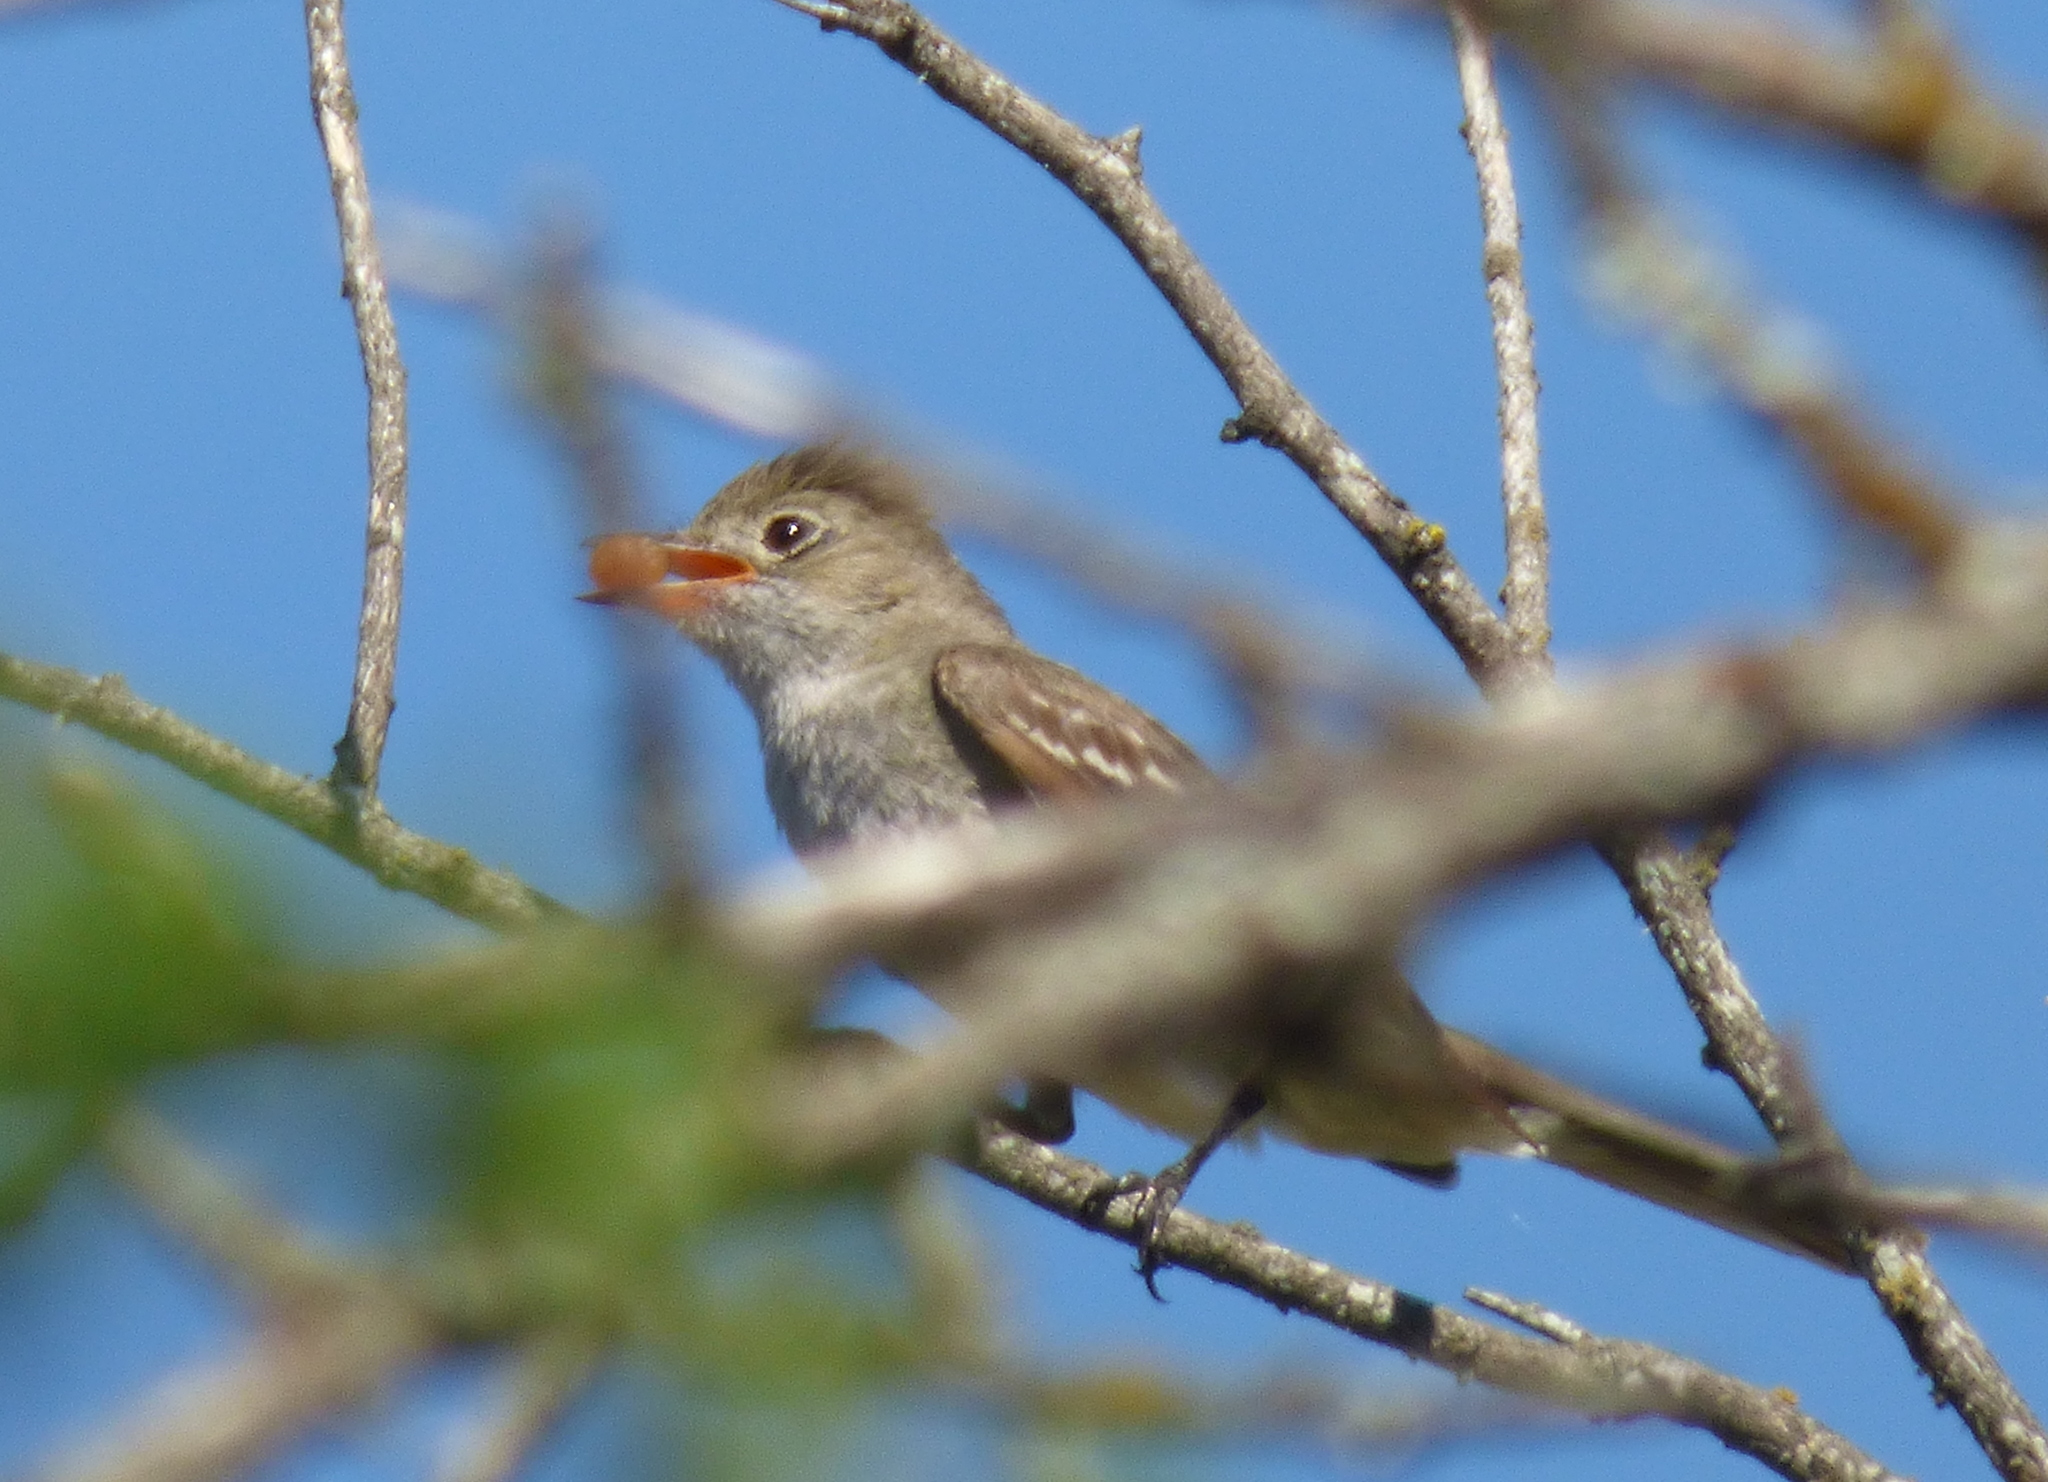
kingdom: Animalia
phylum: Chordata
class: Aves
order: Passeriformes
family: Tyrannidae
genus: Elaenia
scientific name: Elaenia spectabilis
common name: Large elaenia
